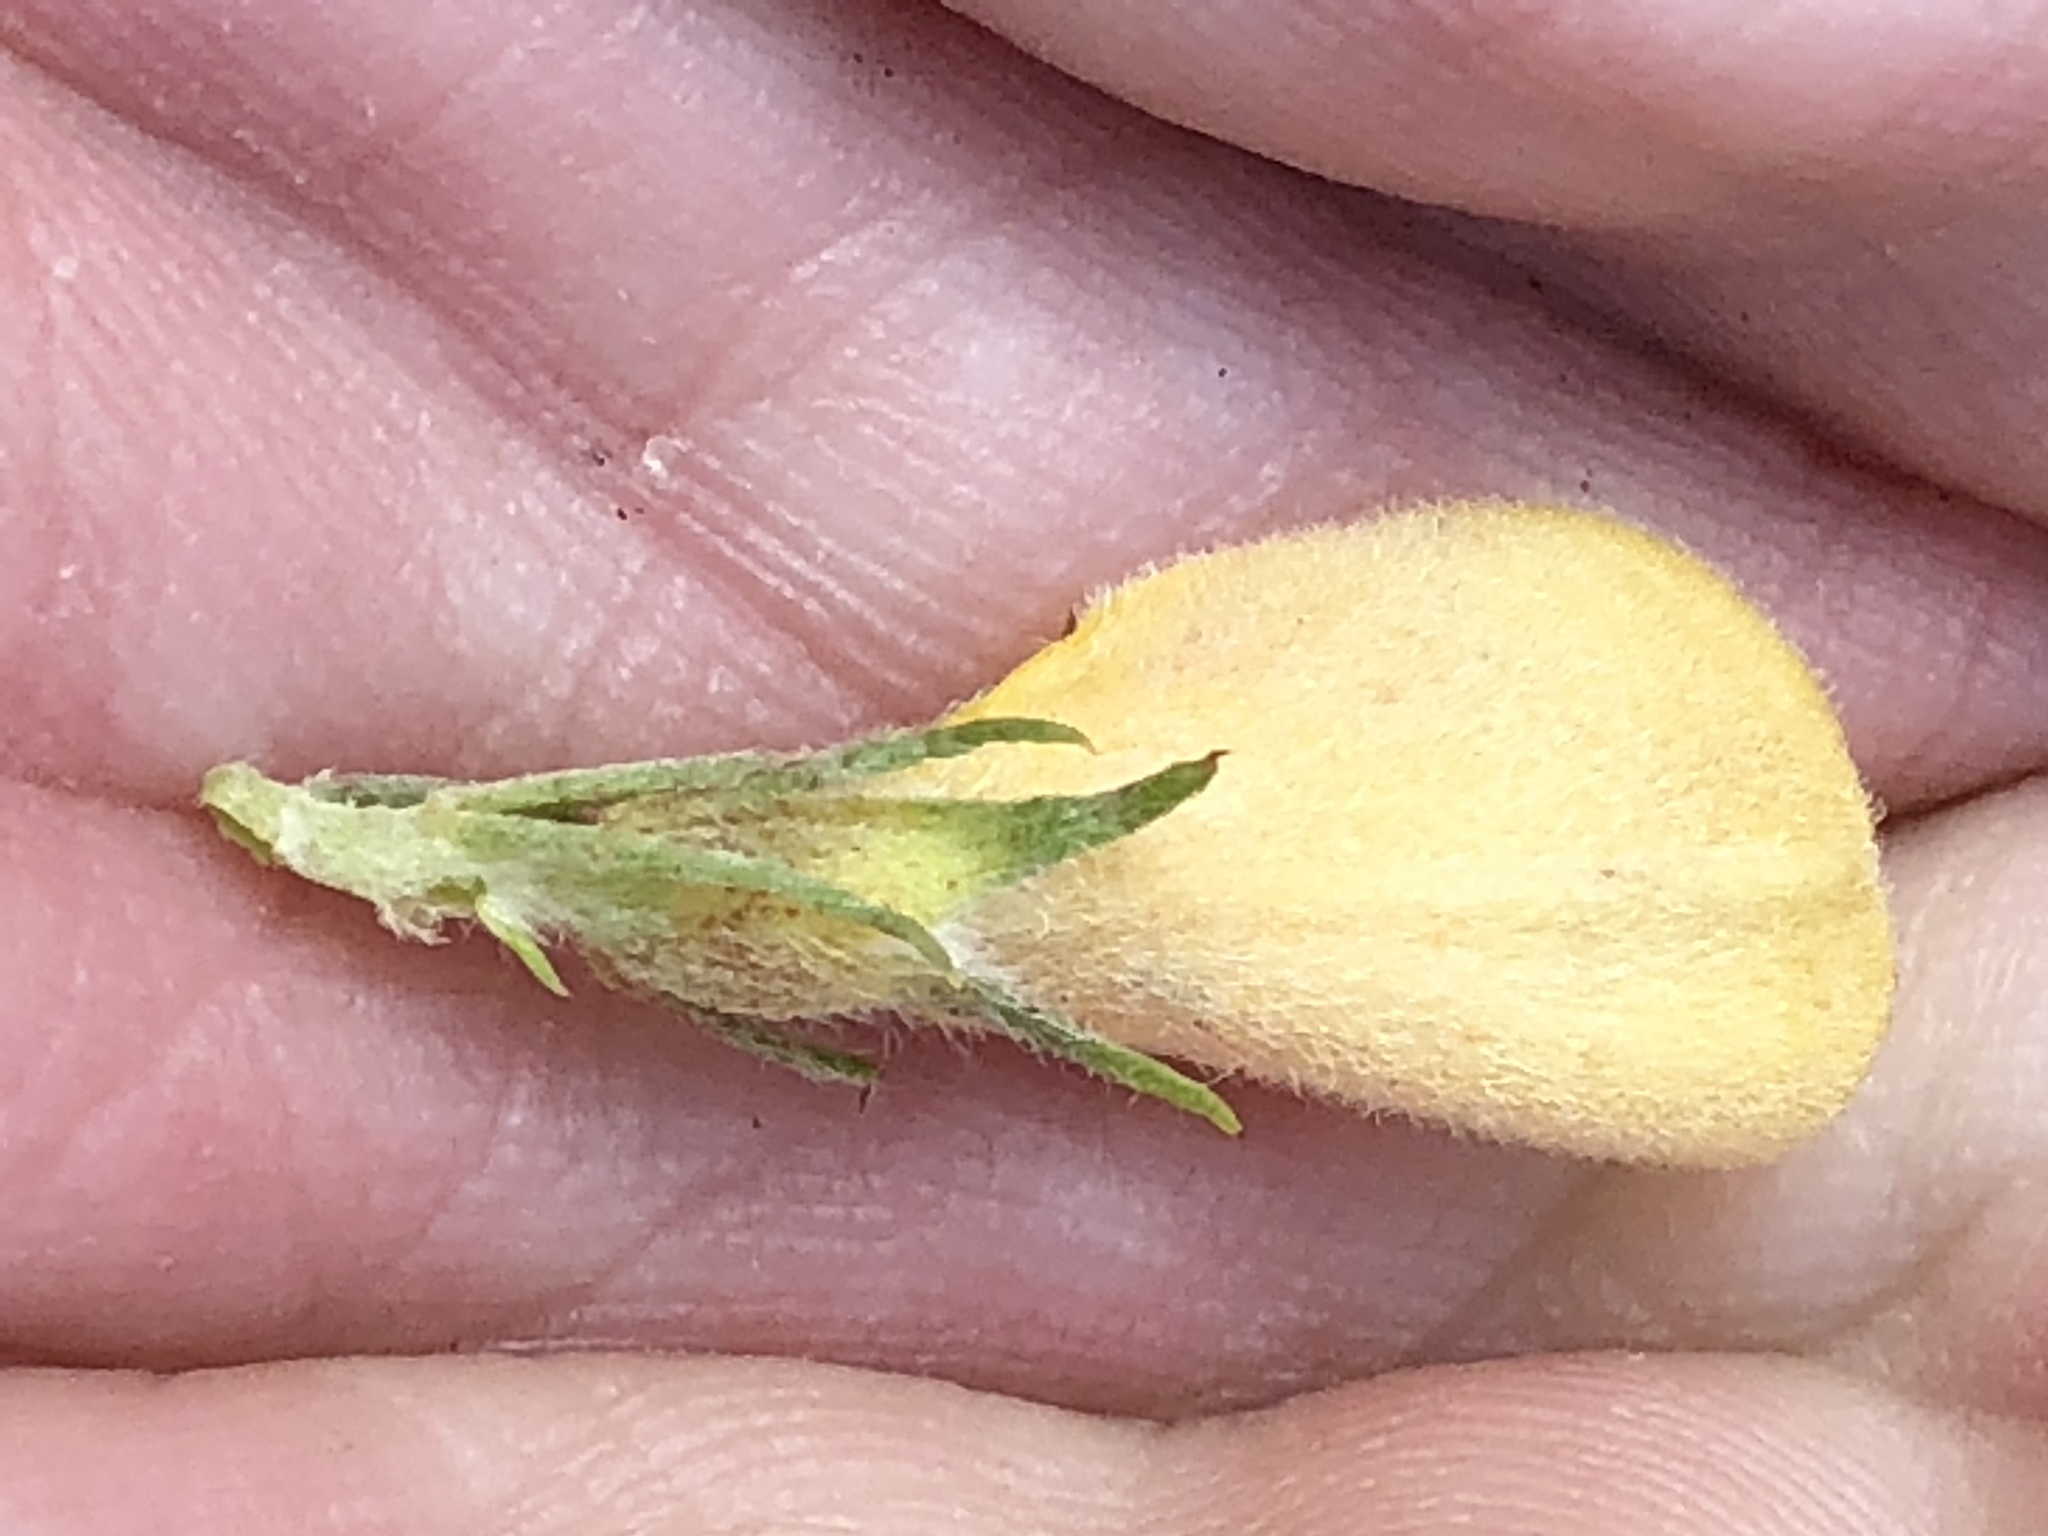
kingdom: Plantae
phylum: Tracheophyta
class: Magnoliopsida
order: Fabales
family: Fabaceae
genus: Aspalathus
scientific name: Aspalathus neglecta
